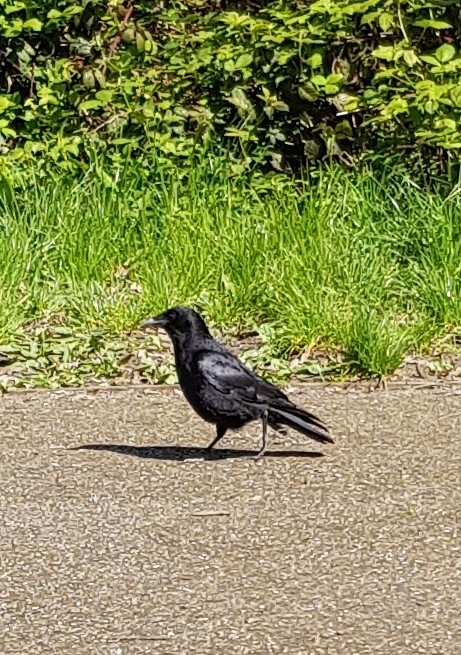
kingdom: Animalia
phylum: Chordata
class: Aves
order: Passeriformes
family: Corvidae
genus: Corvus
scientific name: Corvus corone
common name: Carrion crow
